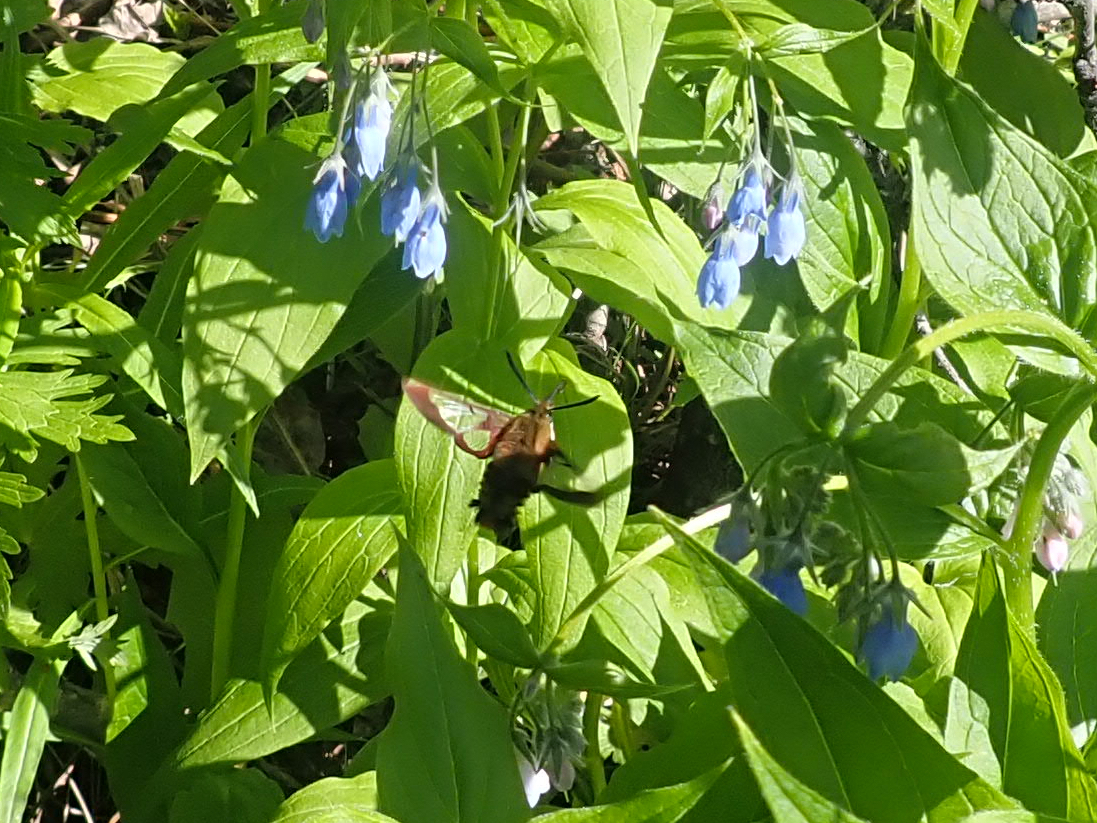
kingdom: Animalia
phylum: Arthropoda
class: Insecta
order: Lepidoptera
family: Sphingidae
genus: Hemaris
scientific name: Hemaris thysbe
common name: Common clear-wing
